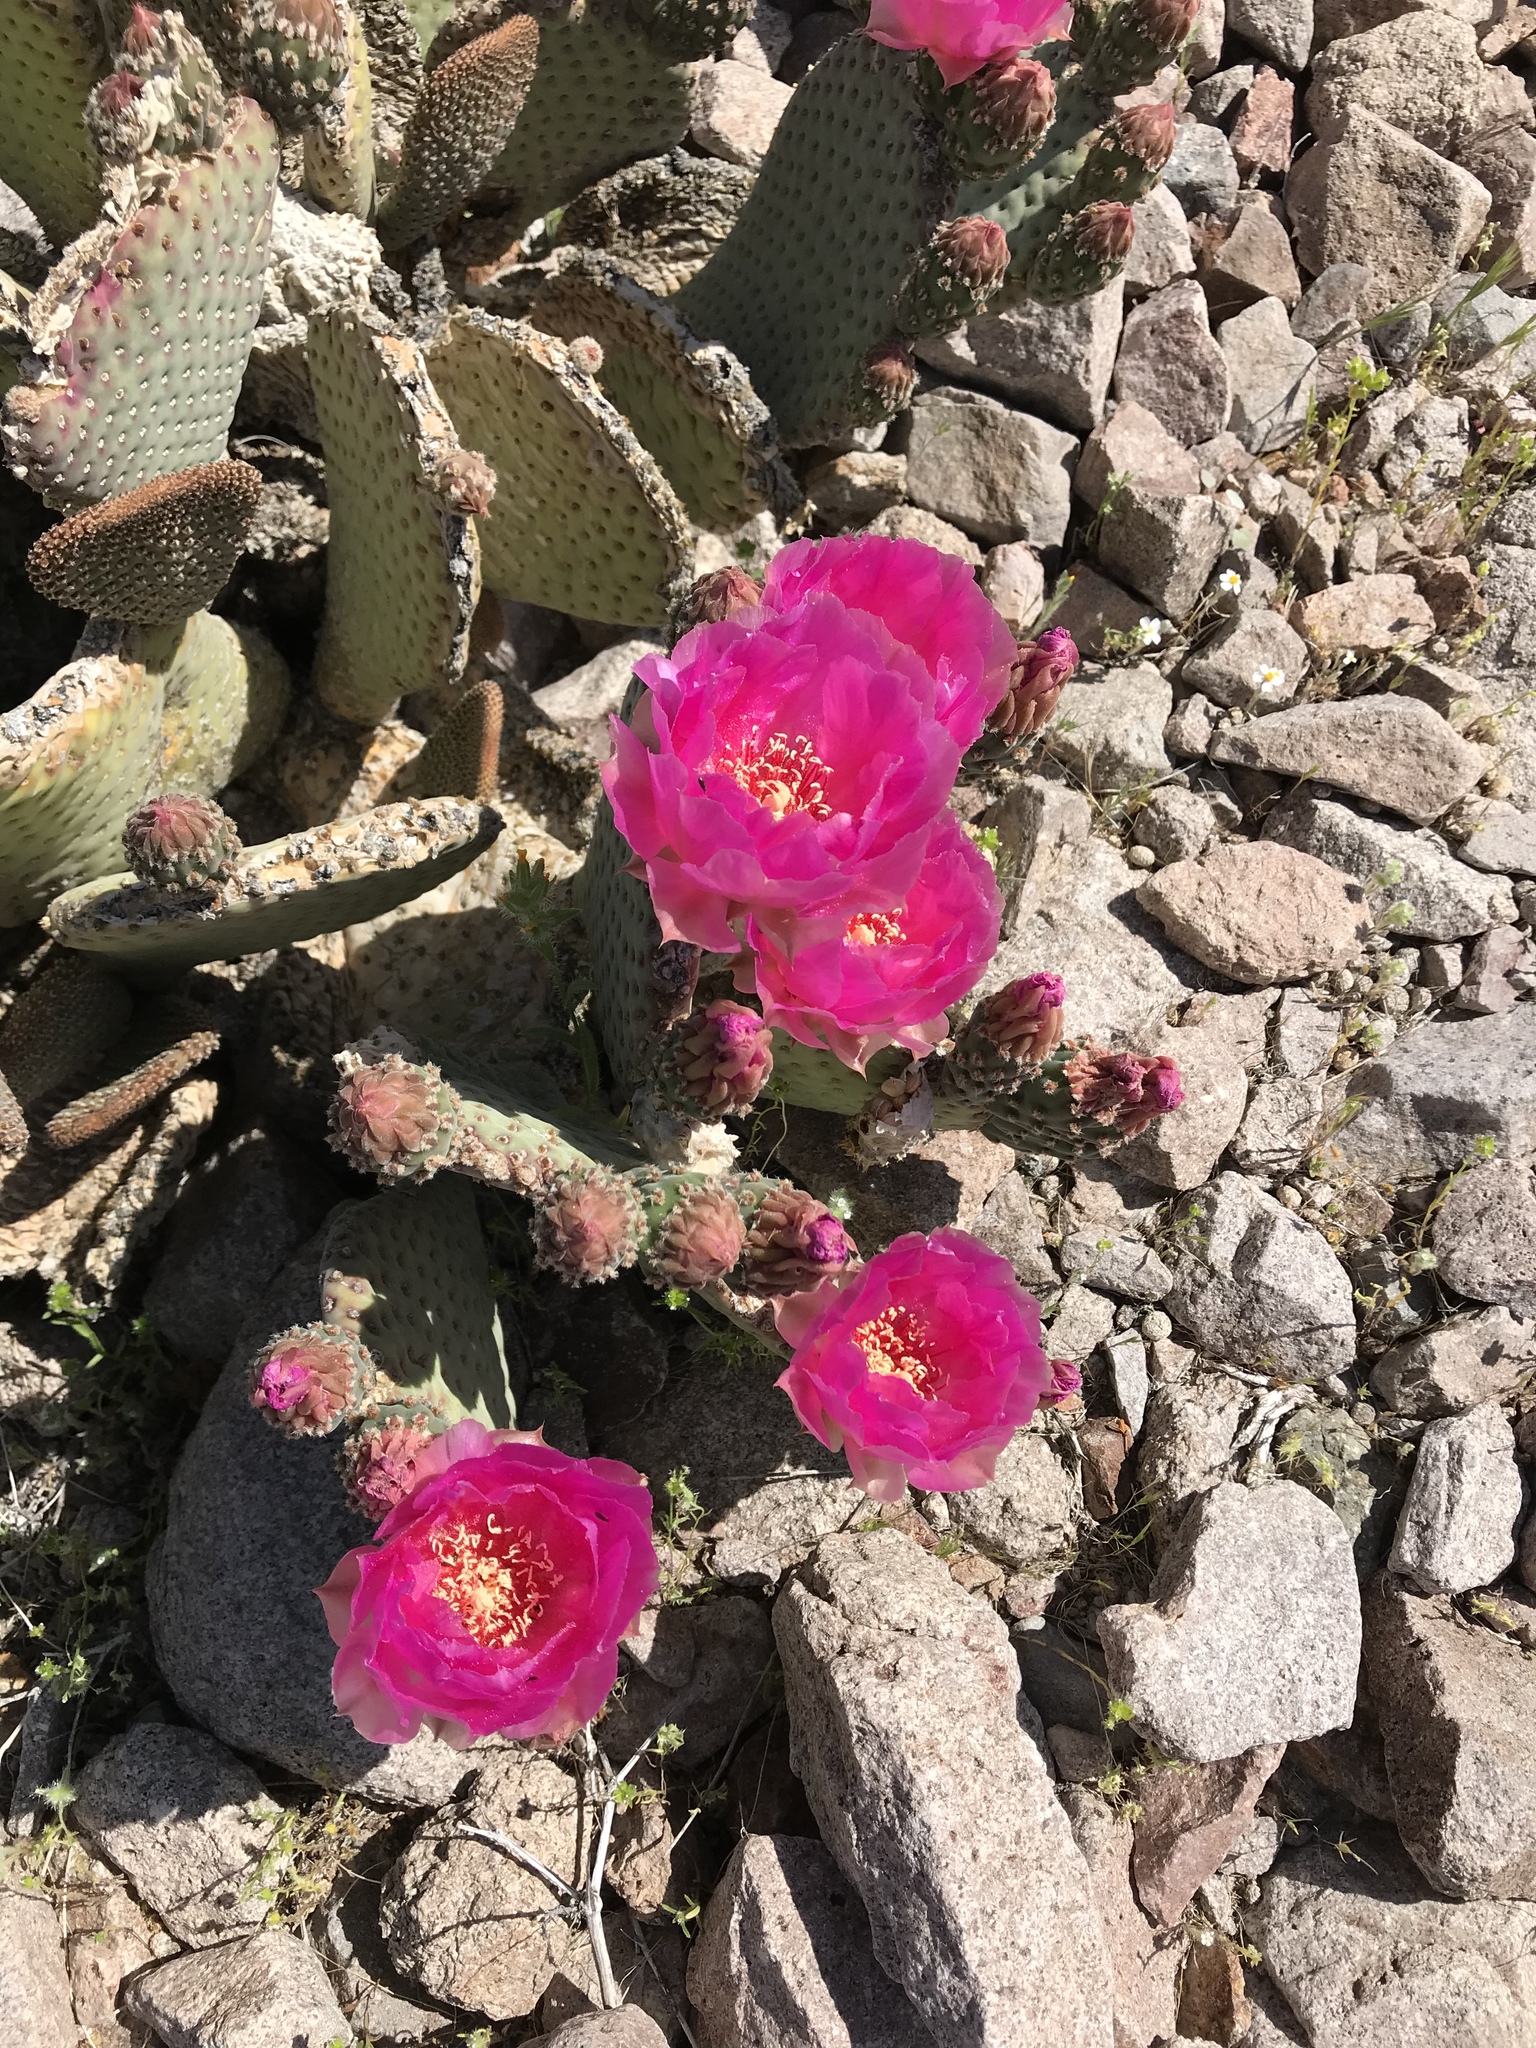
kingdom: Plantae
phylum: Tracheophyta
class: Magnoliopsida
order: Caryophyllales
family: Cactaceae
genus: Opuntia
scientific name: Opuntia basilaris
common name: Beavertail prickly-pear
